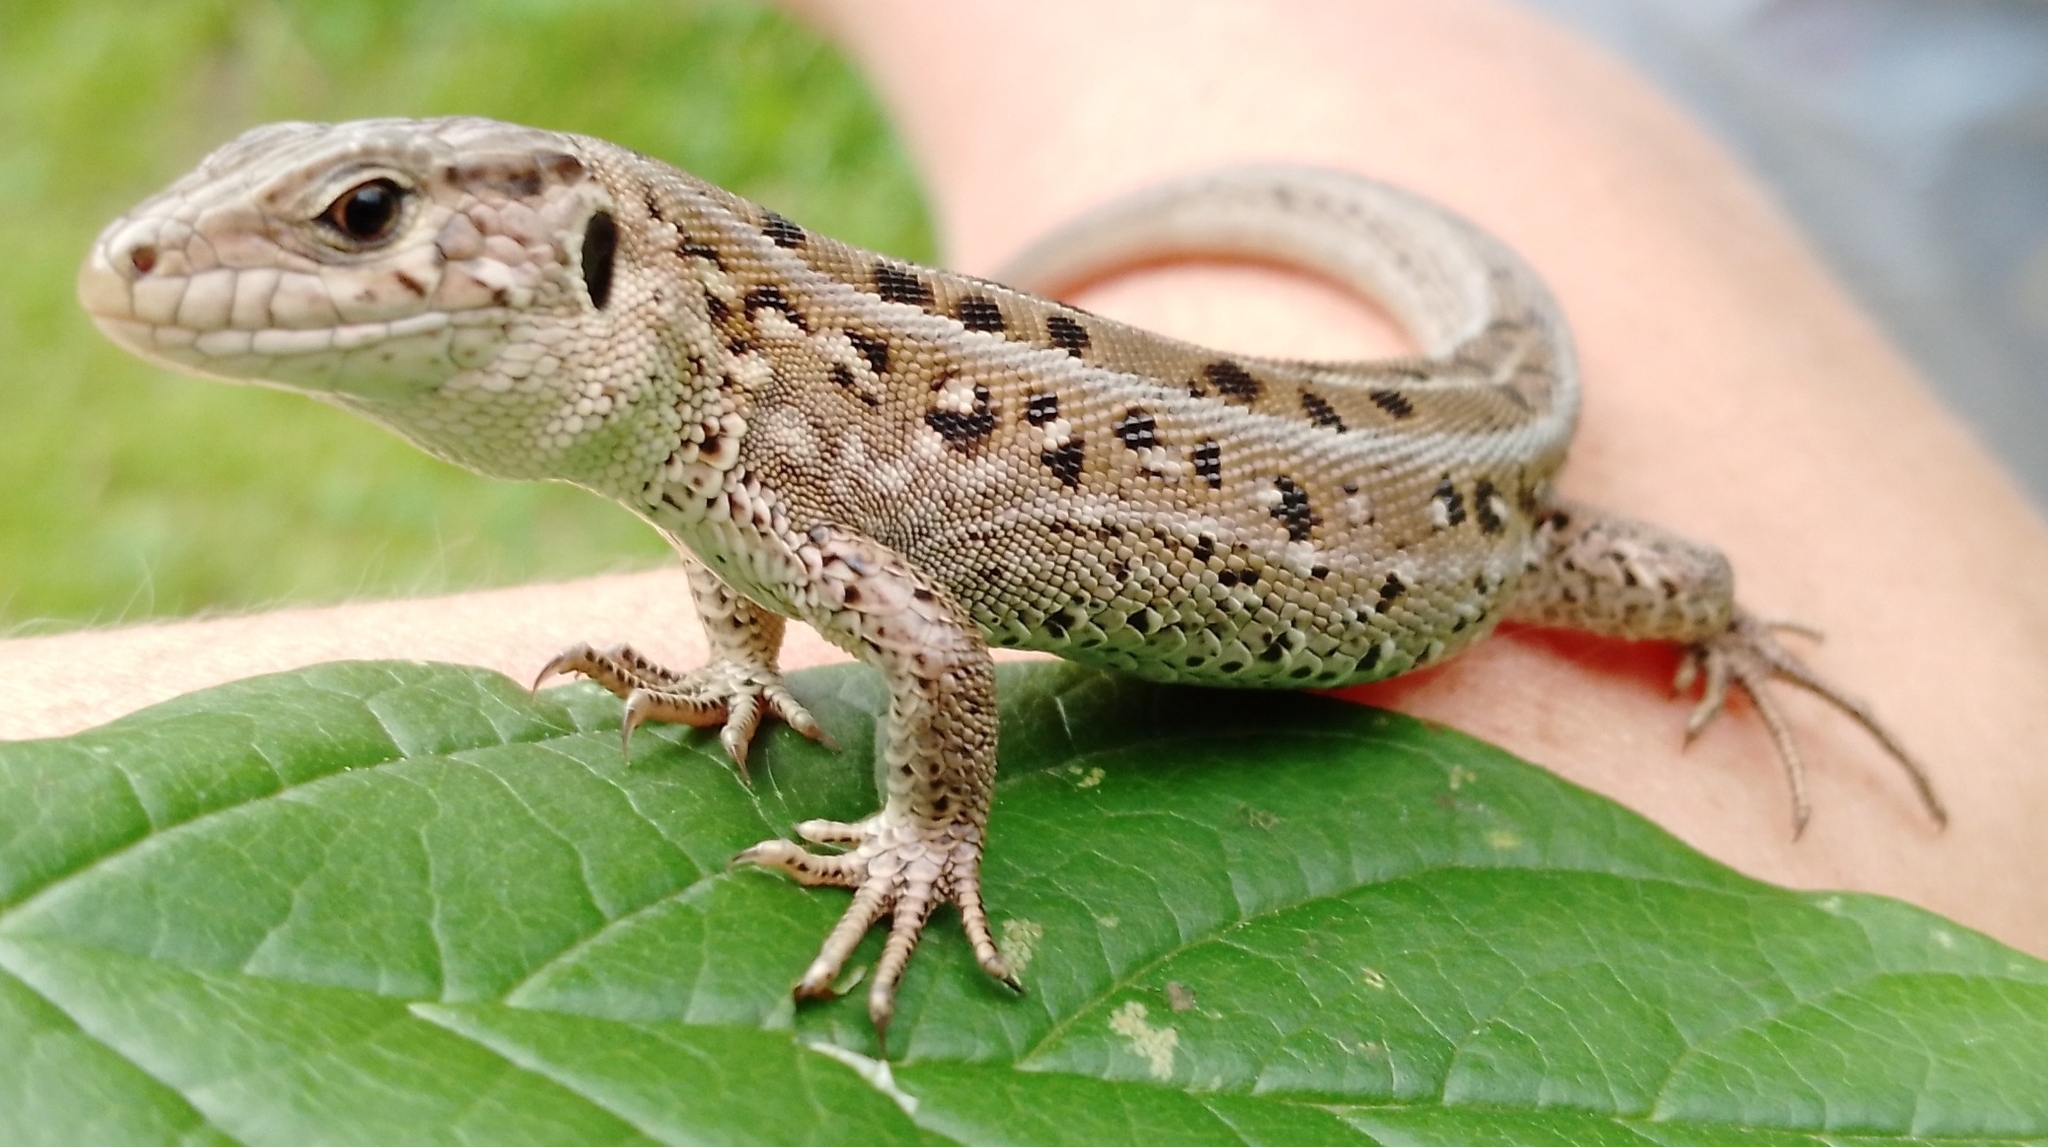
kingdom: Animalia
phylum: Chordata
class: Squamata
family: Lacertidae
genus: Lacerta
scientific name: Lacerta agilis
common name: Sand lizard
